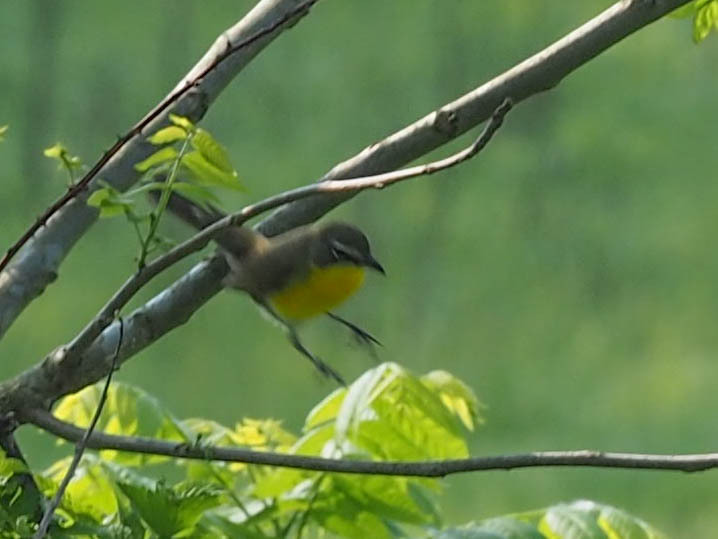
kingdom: Animalia
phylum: Chordata
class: Aves
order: Passeriformes
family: Parulidae
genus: Icteria
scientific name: Icteria virens
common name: Yellow-breasted chat
